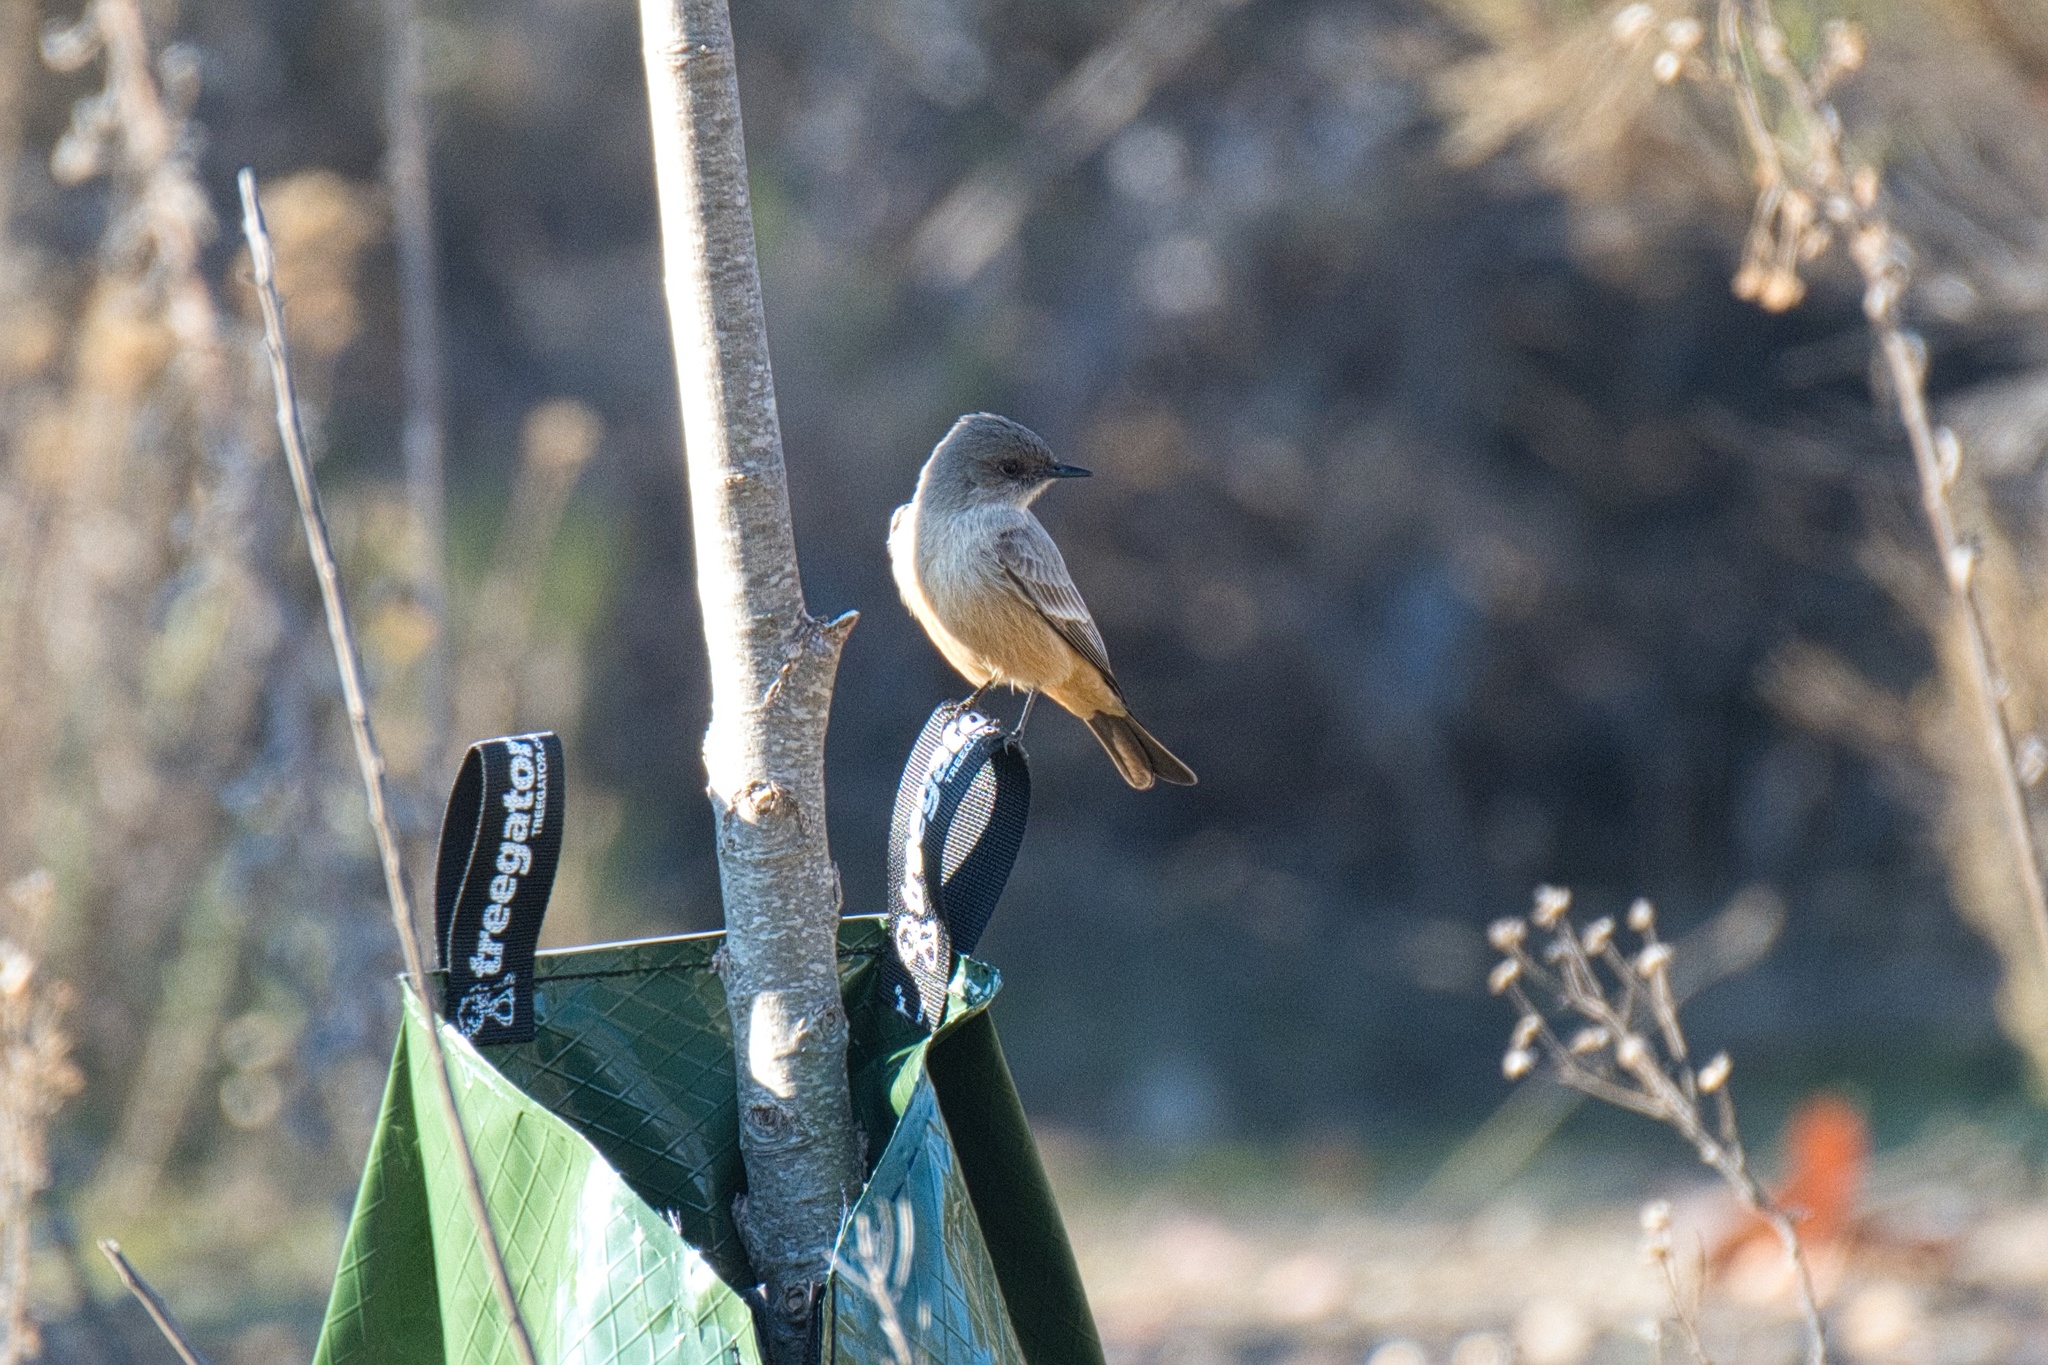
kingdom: Animalia
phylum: Chordata
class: Aves
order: Passeriformes
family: Tyrannidae
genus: Sayornis
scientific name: Sayornis saya
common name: Say's phoebe
